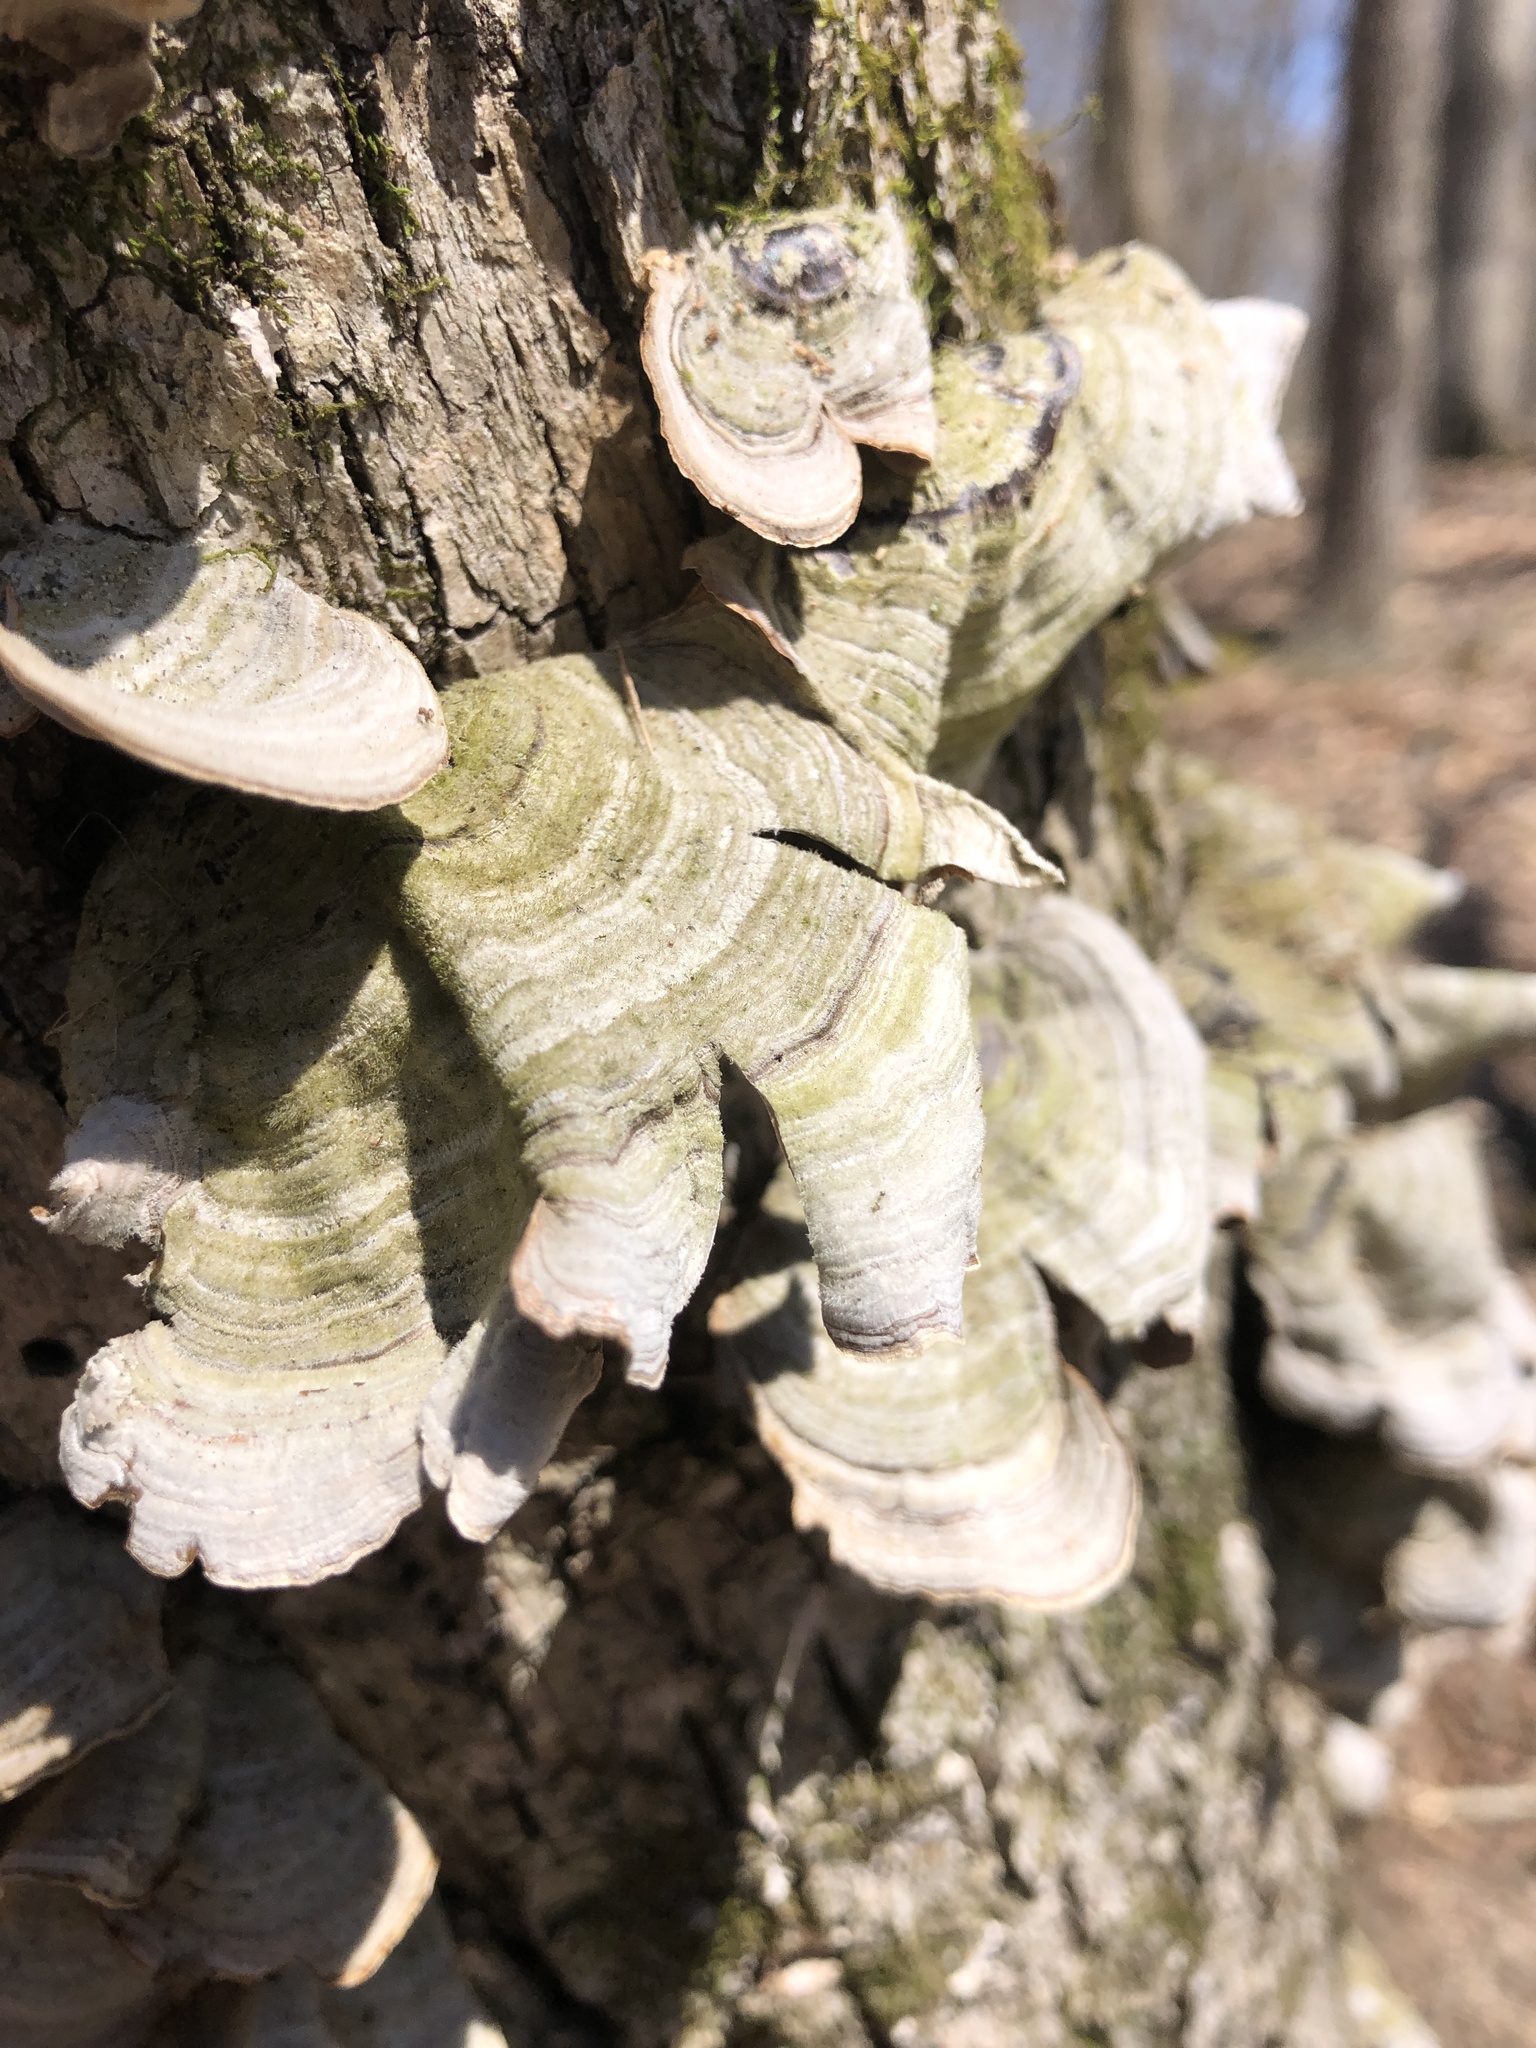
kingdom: Fungi
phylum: Basidiomycota
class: Agaricomycetes
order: Russulales
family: Stereaceae
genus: Stereum
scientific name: Stereum ostrea
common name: False turkeytail
